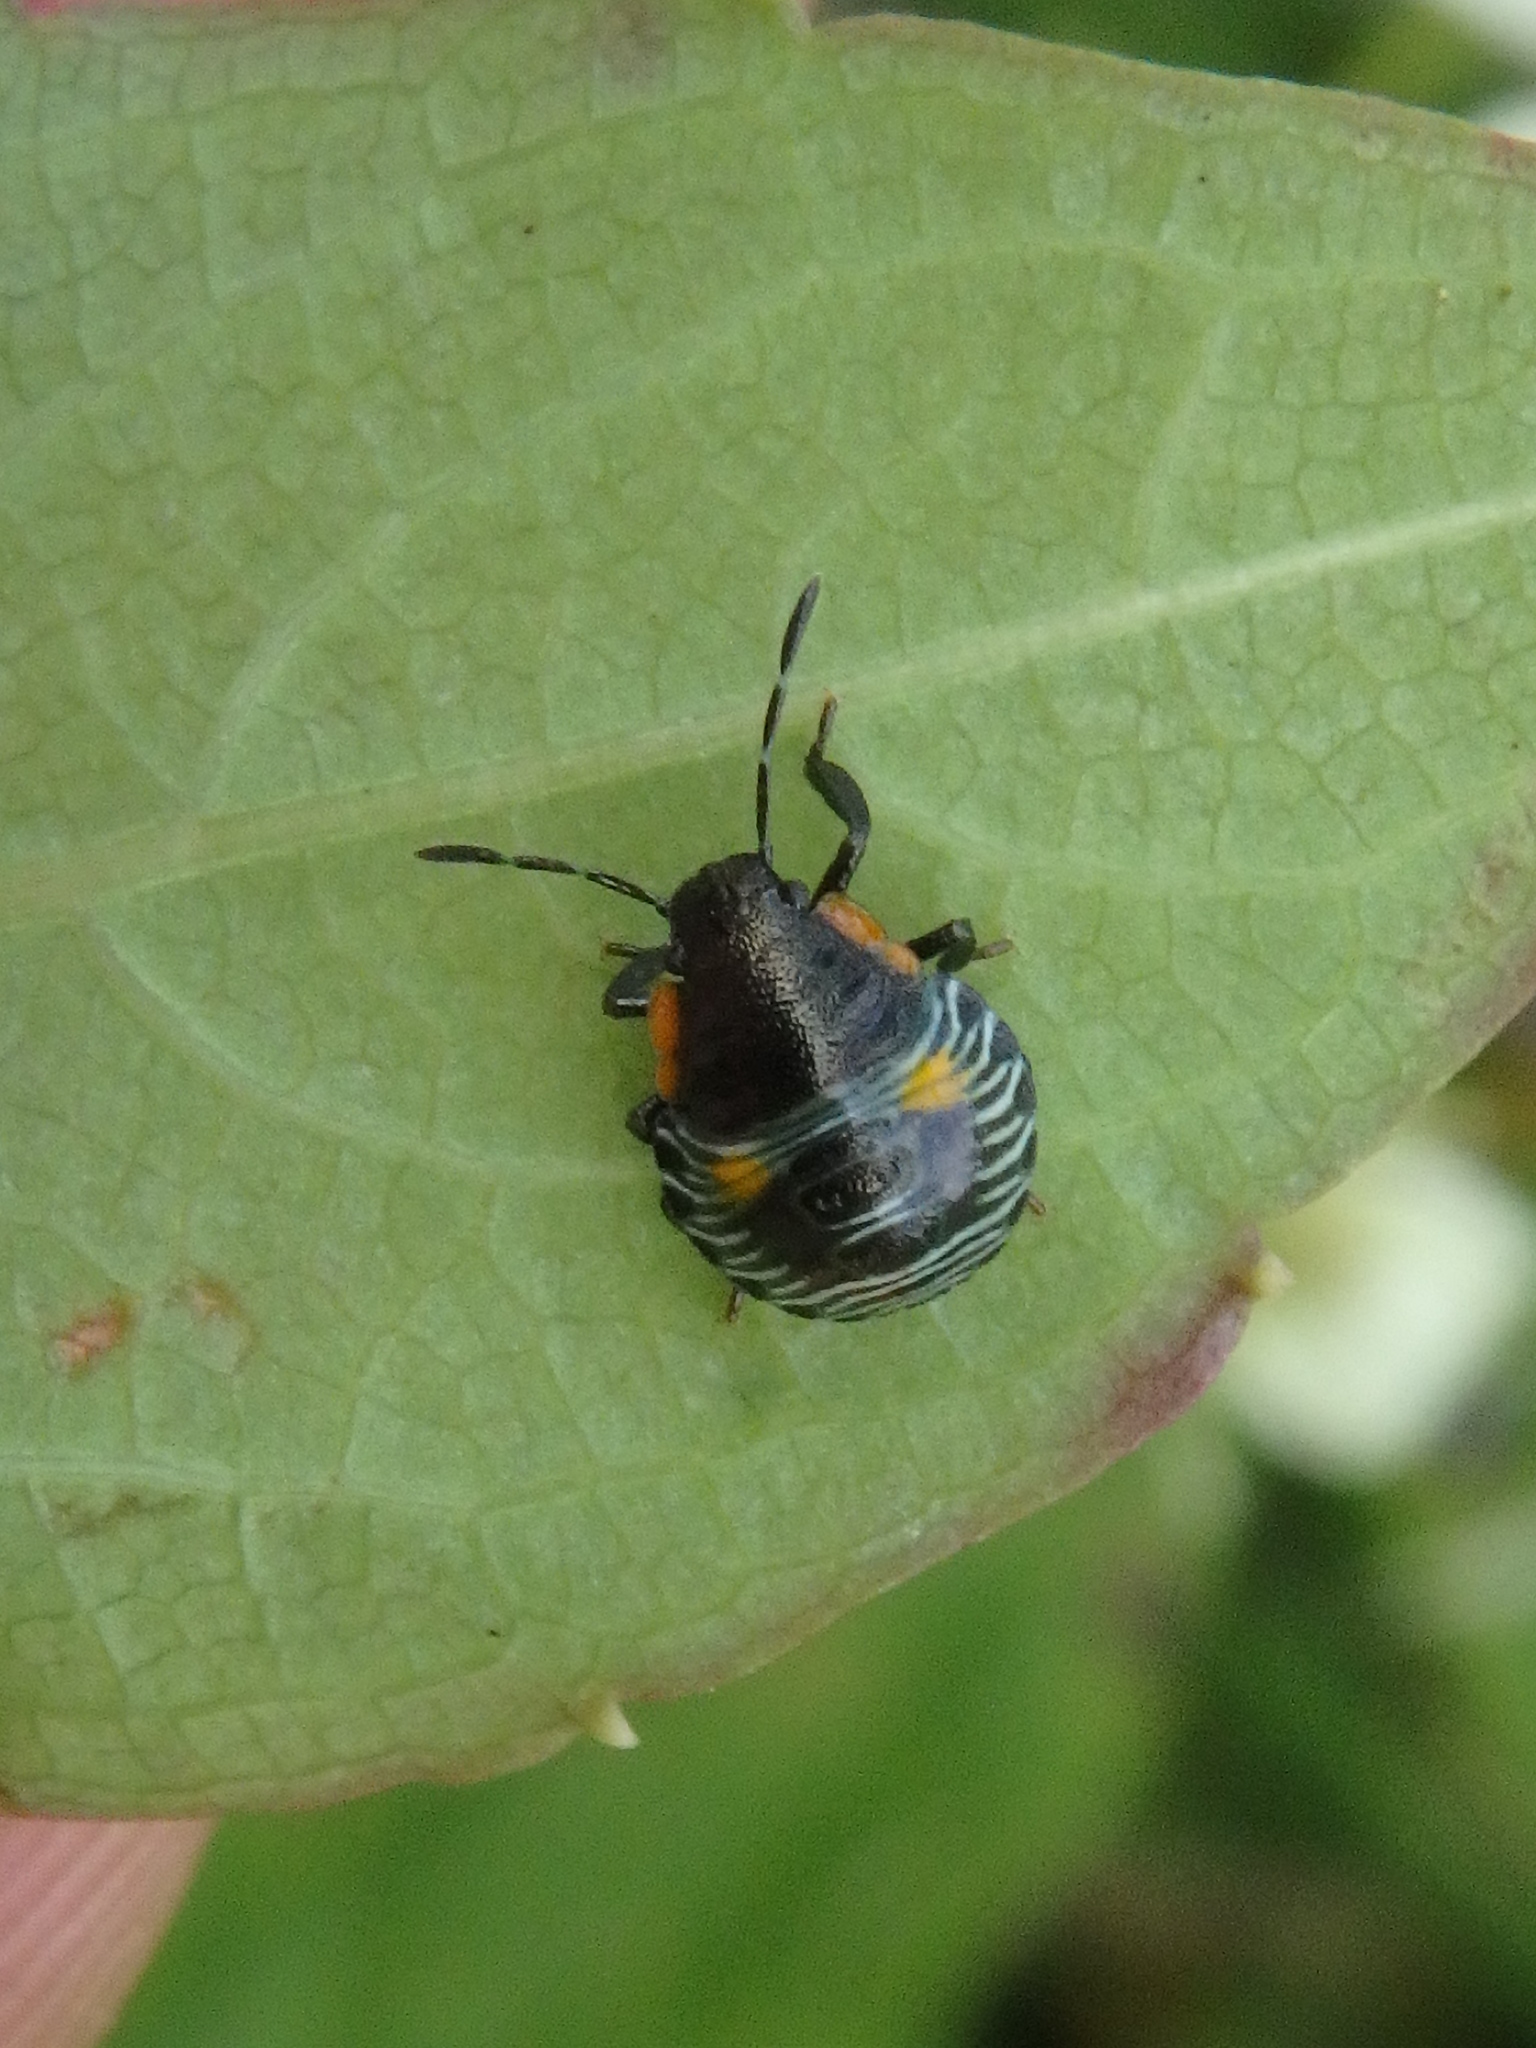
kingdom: Animalia
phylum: Arthropoda
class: Insecta
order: Hemiptera
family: Pentatomidae
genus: Chinavia
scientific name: Chinavia hilaris
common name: Green stink bug
